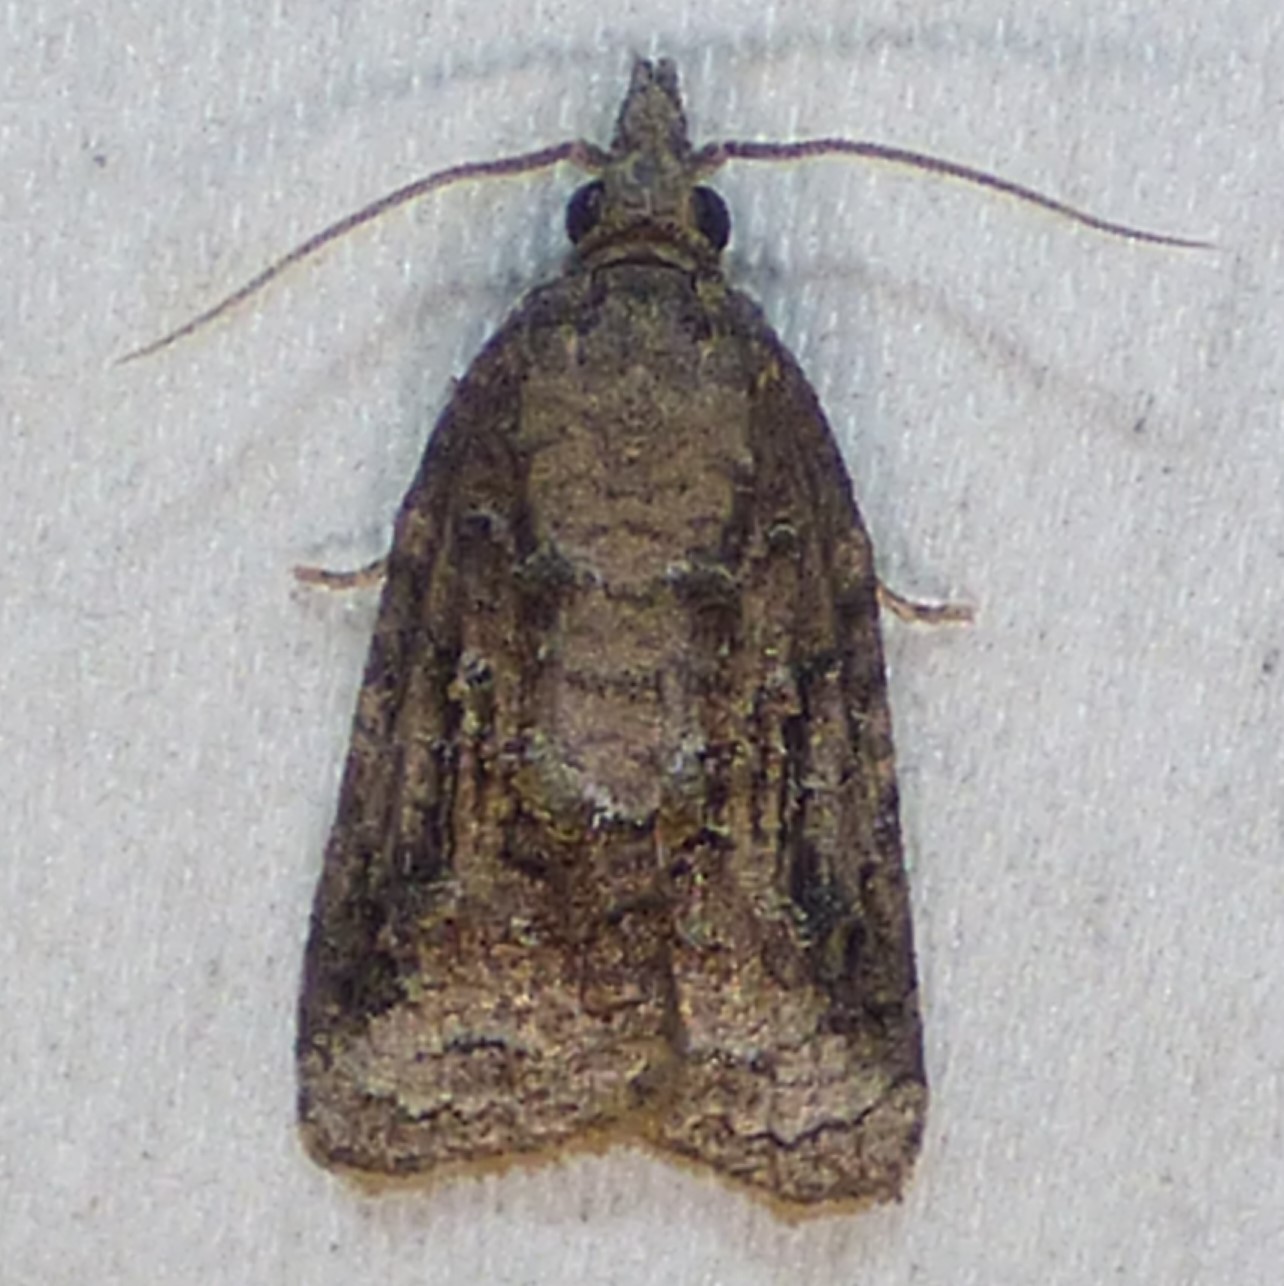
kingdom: Animalia
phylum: Arthropoda
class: Insecta
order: Lepidoptera
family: Tortricidae
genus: Platynota
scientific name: Platynota idaeusalis
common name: Tufted apple bud moth
